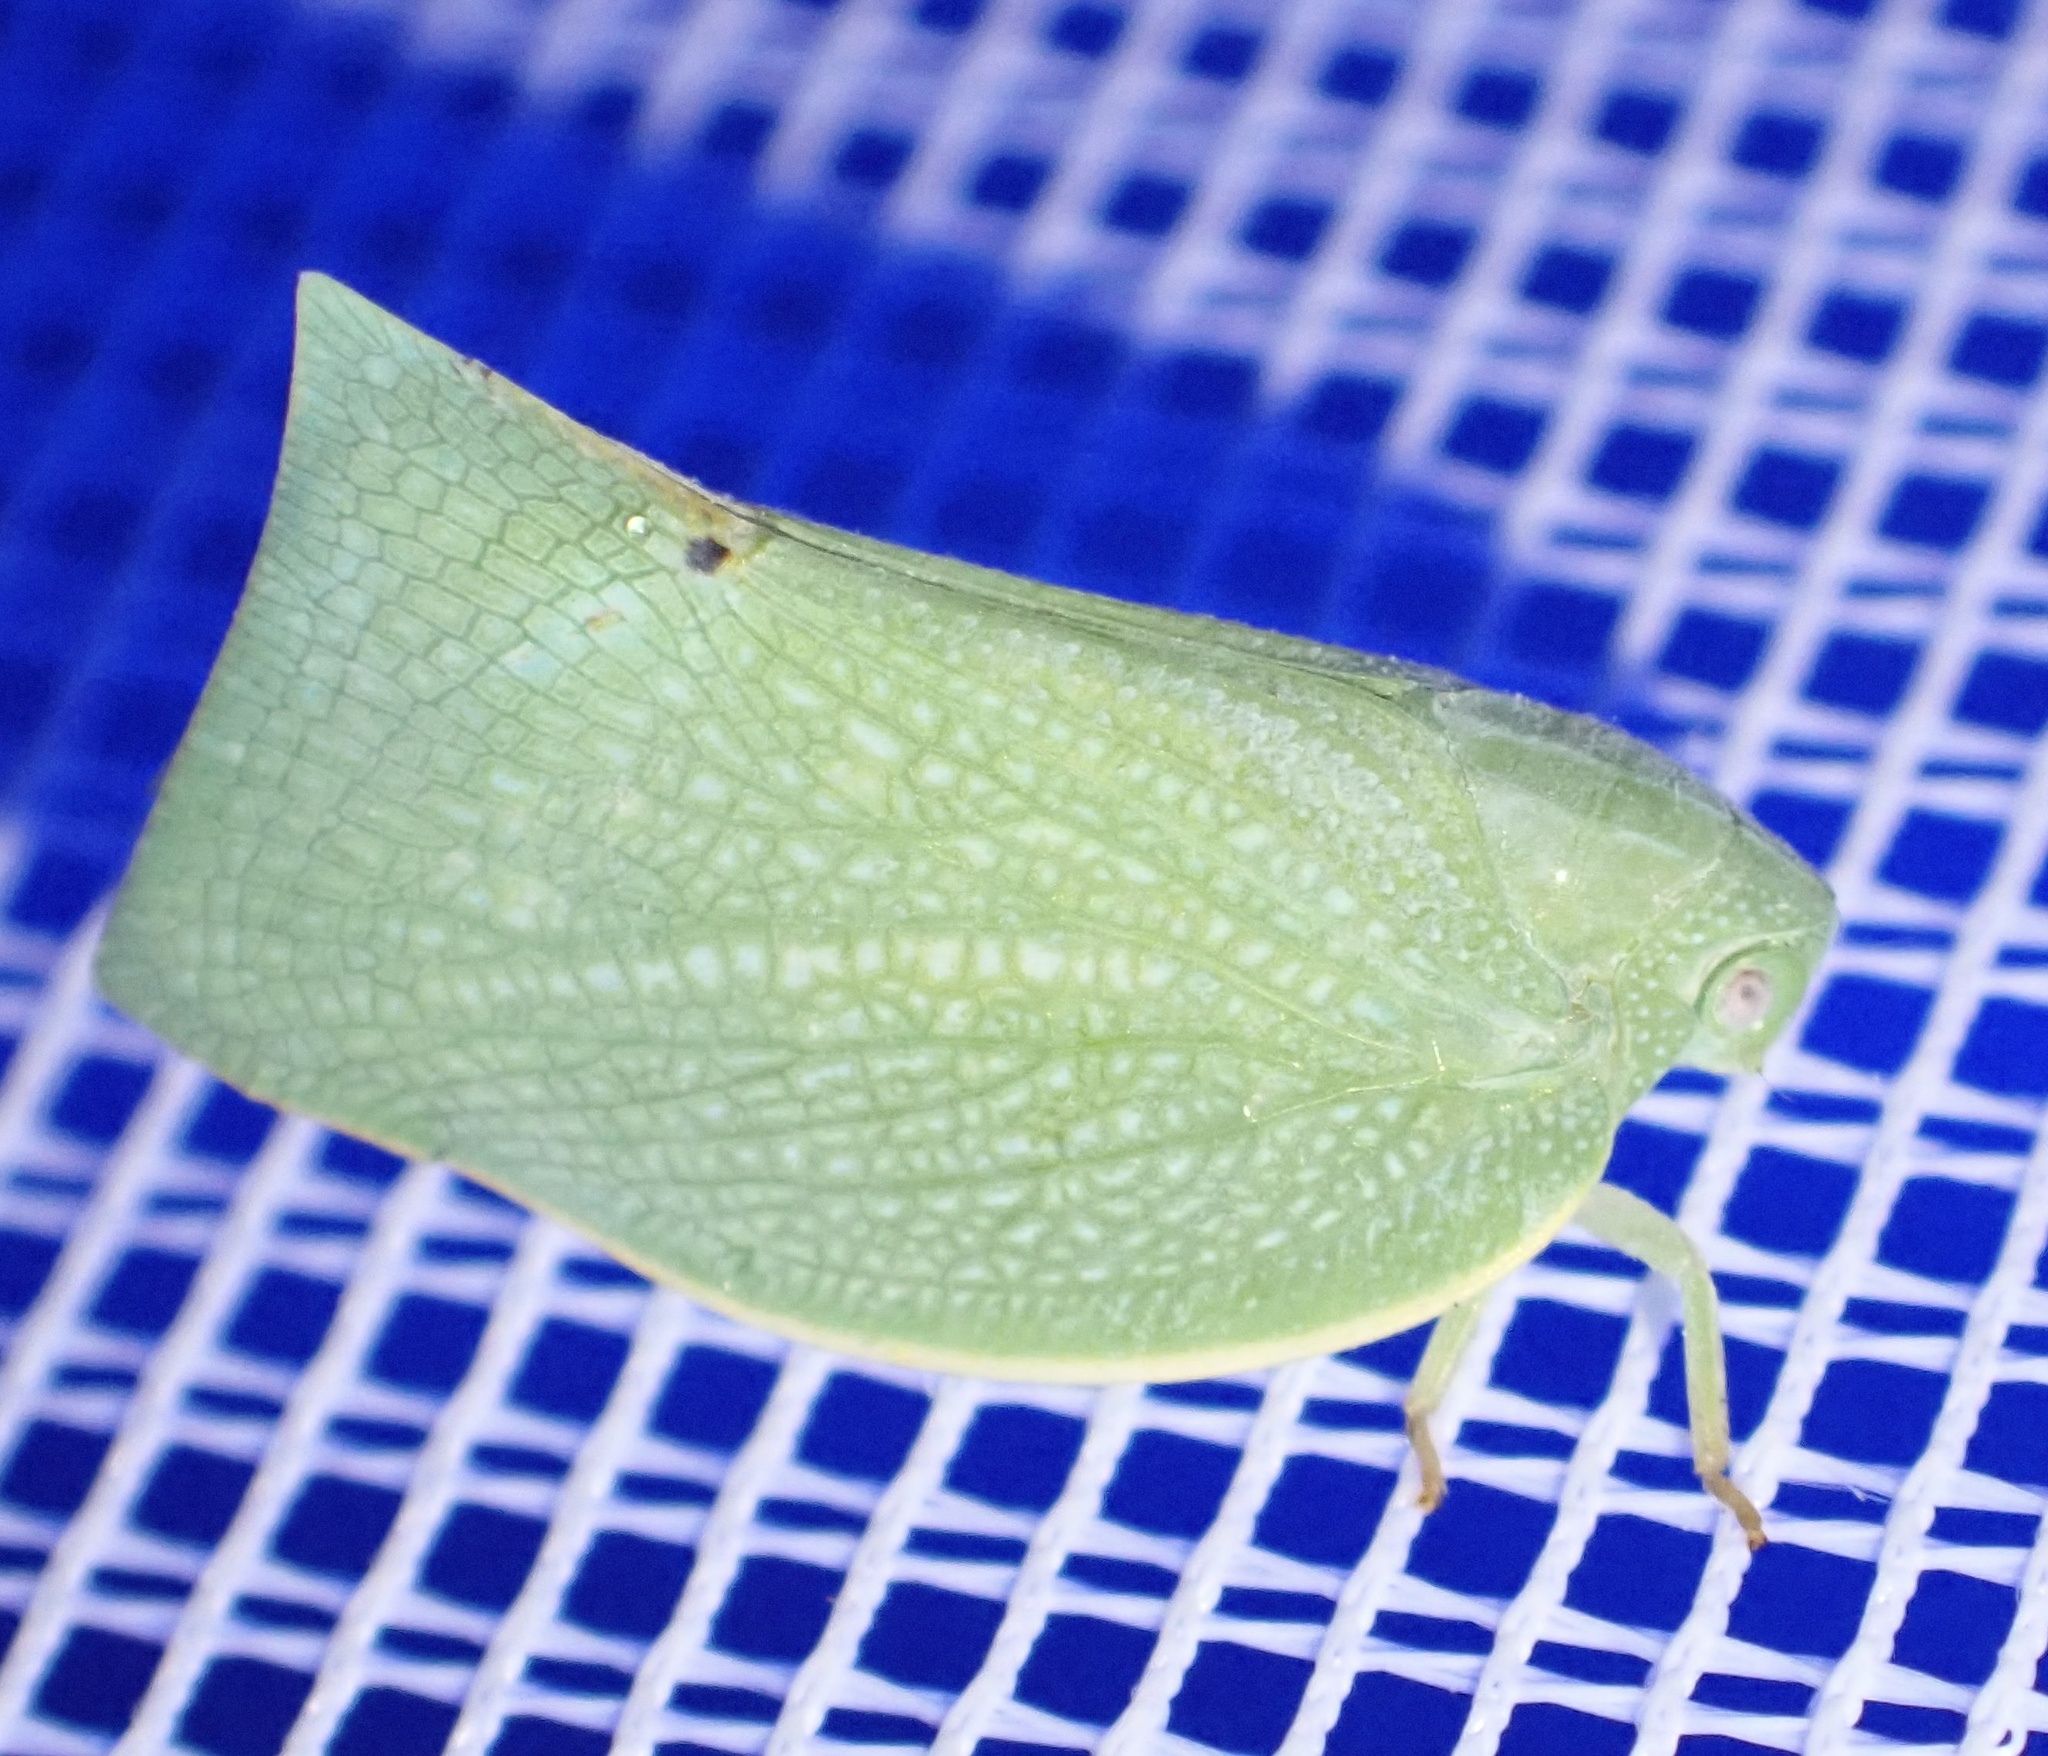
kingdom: Animalia
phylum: Arthropoda
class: Insecta
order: Hemiptera
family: Flatidae
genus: Cryptoflata
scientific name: Cryptoflata unipunctata
